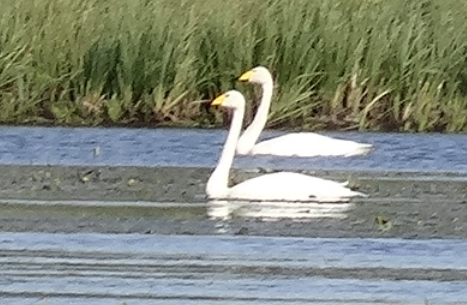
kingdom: Animalia
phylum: Chordata
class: Aves
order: Anseriformes
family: Anatidae
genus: Cygnus
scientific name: Cygnus cygnus
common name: Whooper swan
